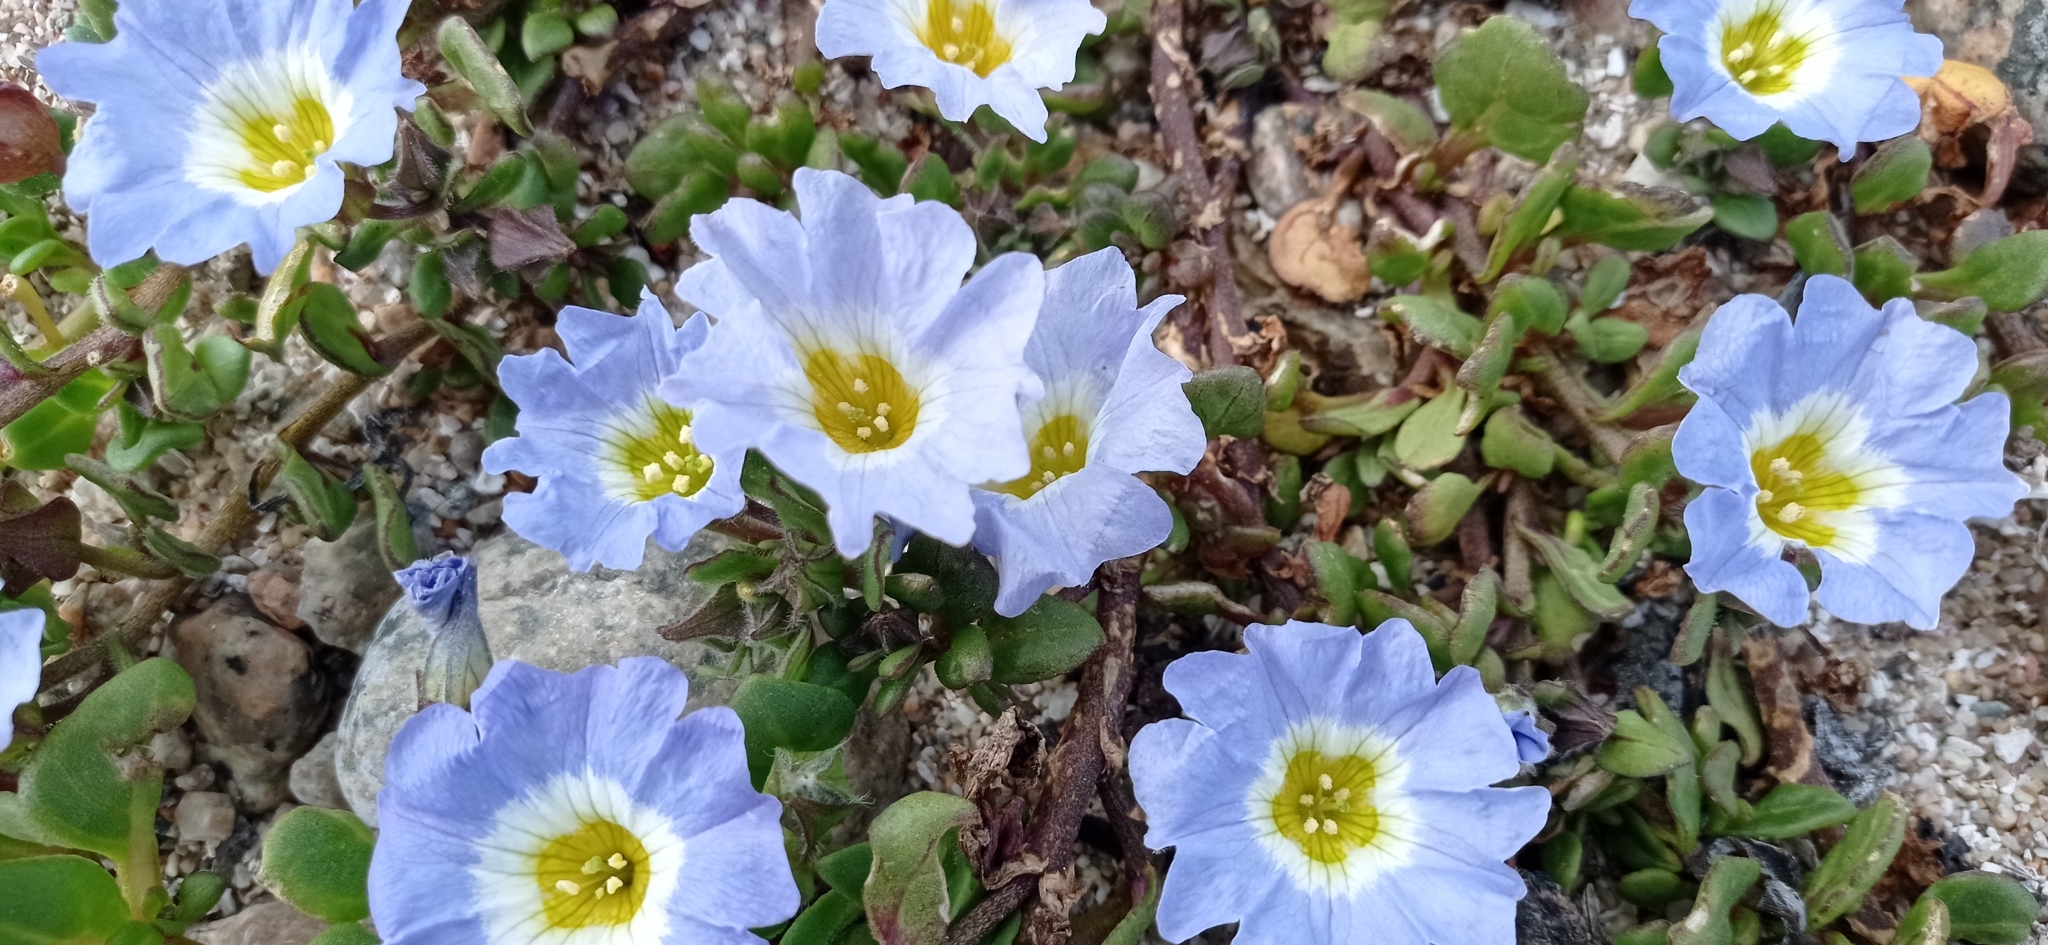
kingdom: Plantae
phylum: Tracheophyta
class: Magnoliopsida
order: Solanales
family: Solanaceae
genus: Nolana
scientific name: Nolana paradoxa
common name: Chilean-bellflower
